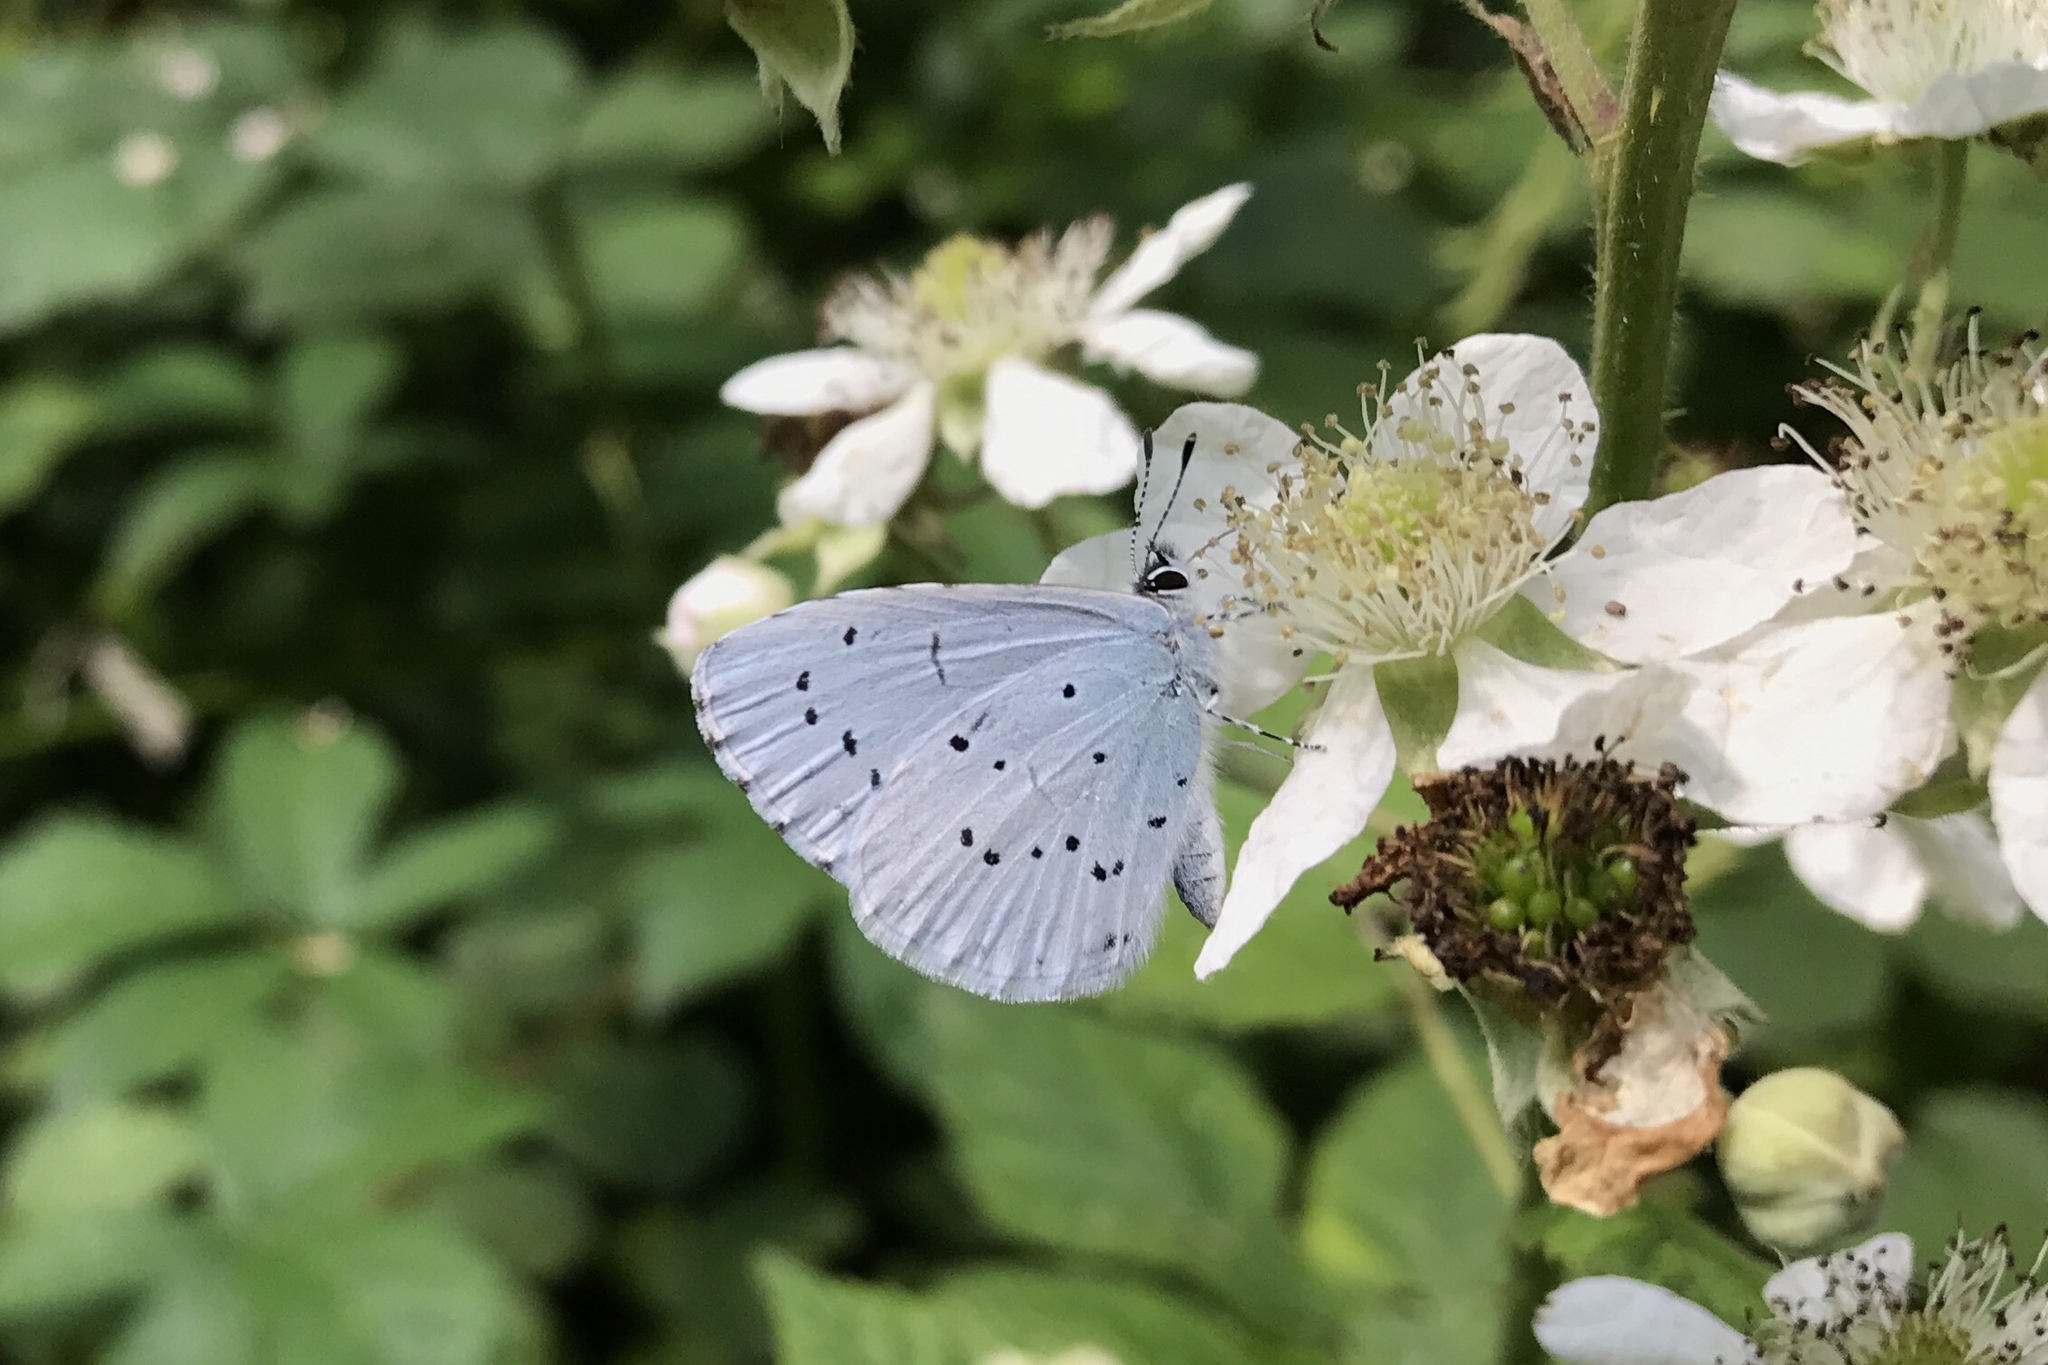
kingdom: Animalia
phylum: Arthropoda
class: Insecta
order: Lepidoptera
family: Lycaenidae
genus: Celastrina
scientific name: Celastrina argiolus
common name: Holly blue
